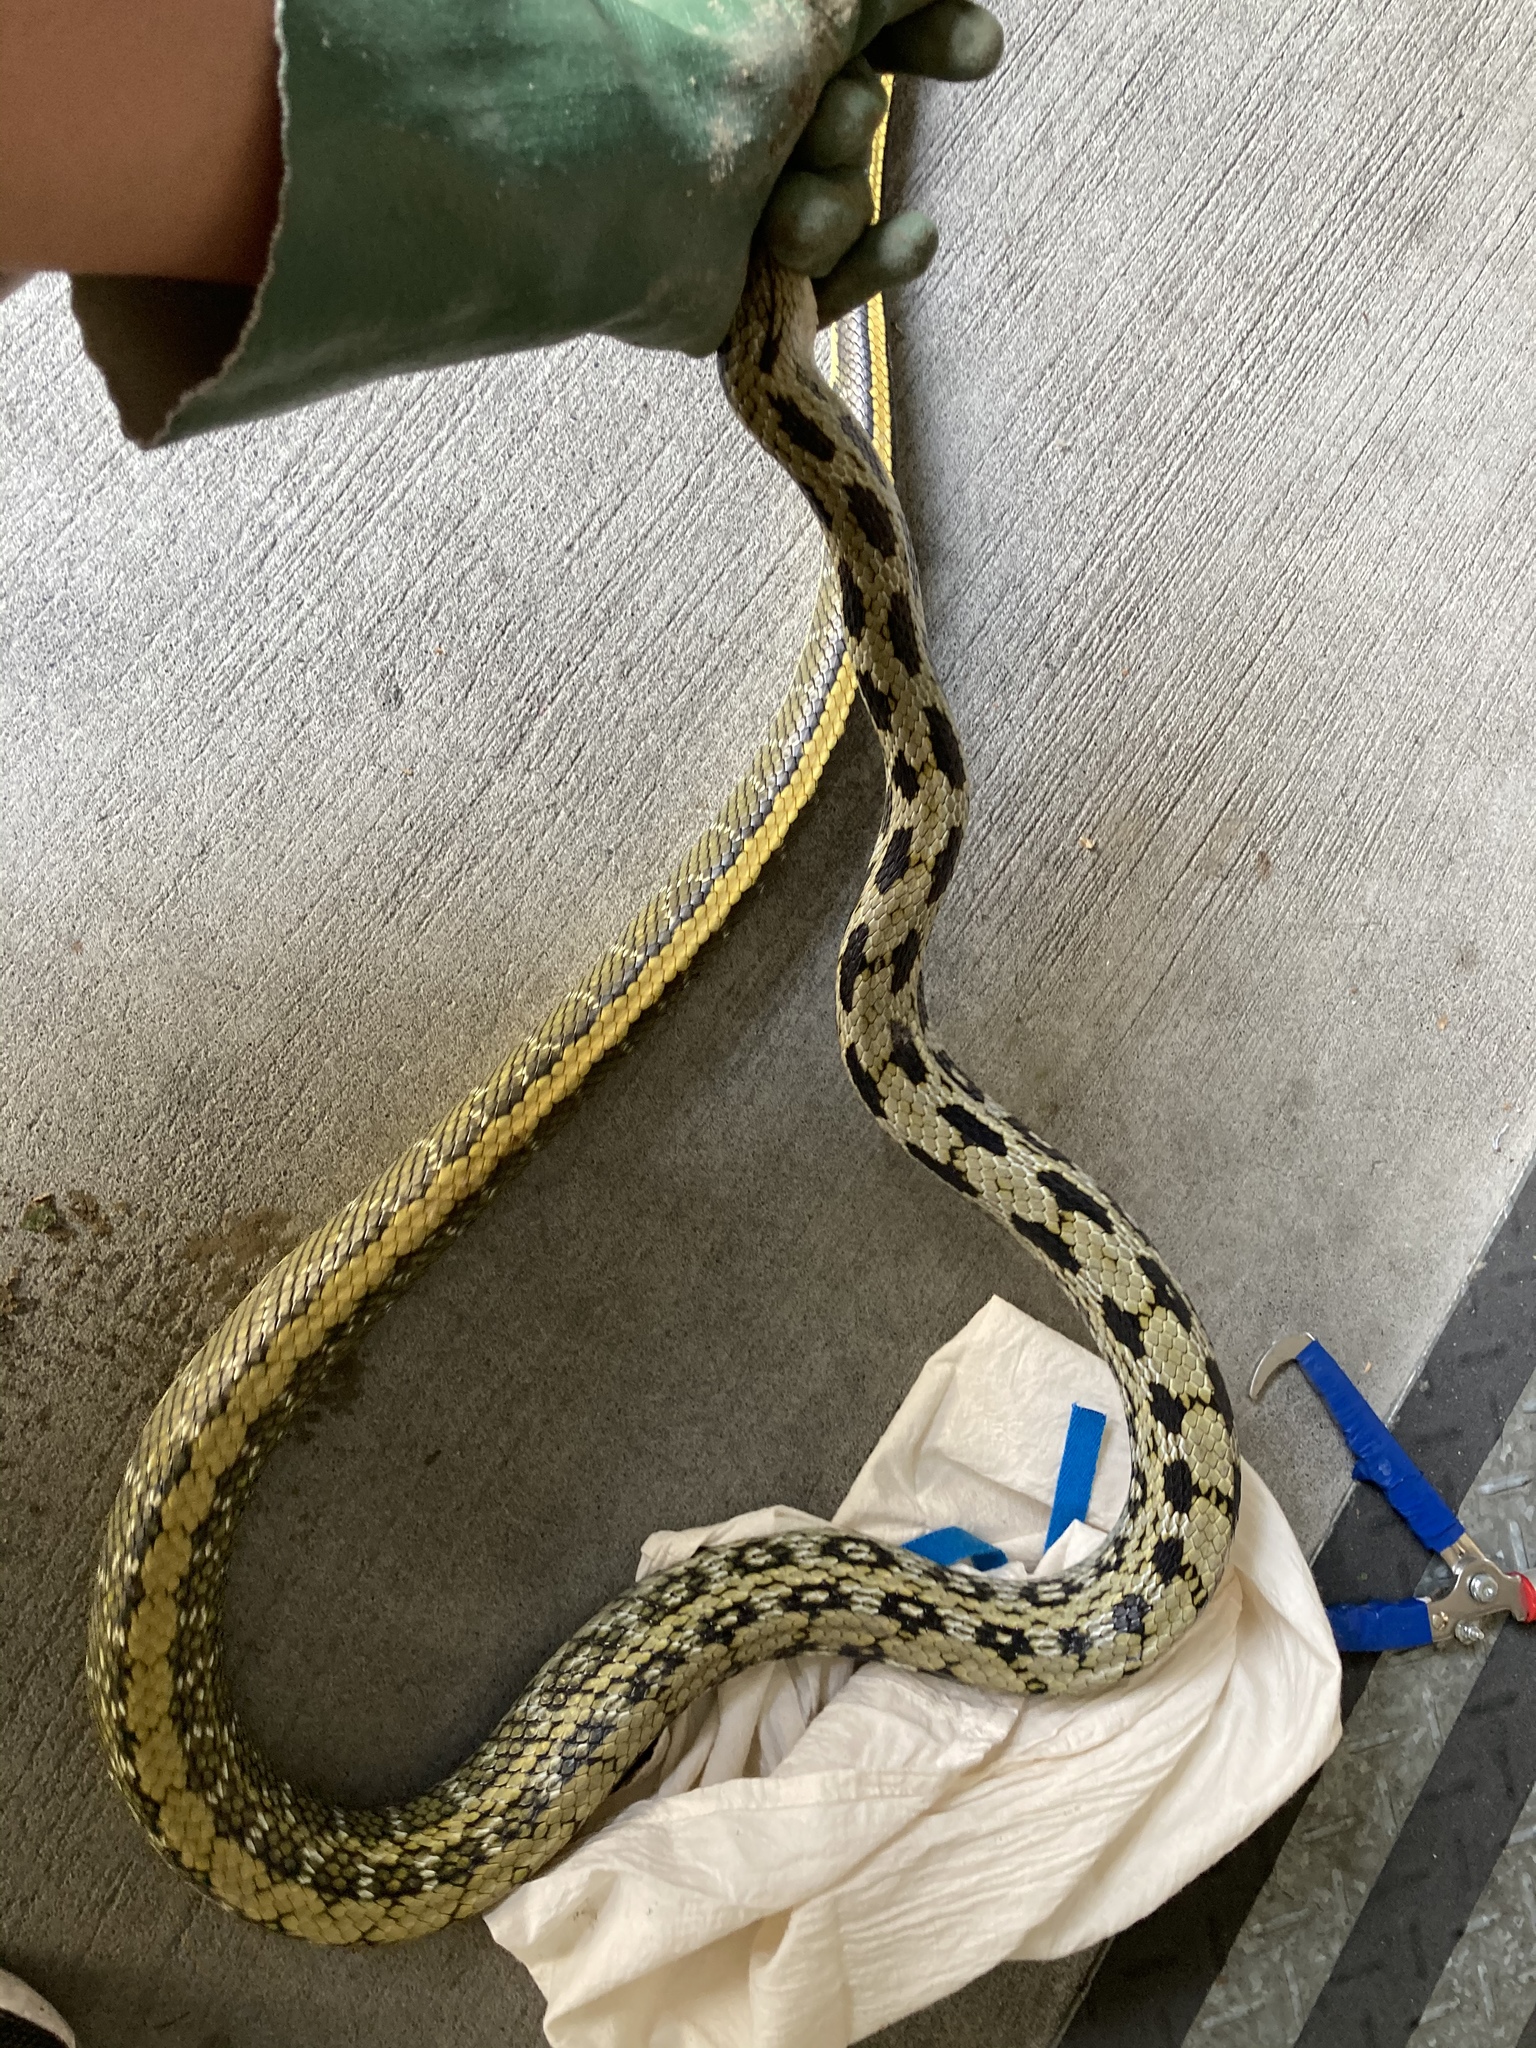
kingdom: Animalia
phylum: Chordata
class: Squamata
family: Colubridae
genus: Elaphe
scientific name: Elaphe taeniura
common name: Beauty snake
